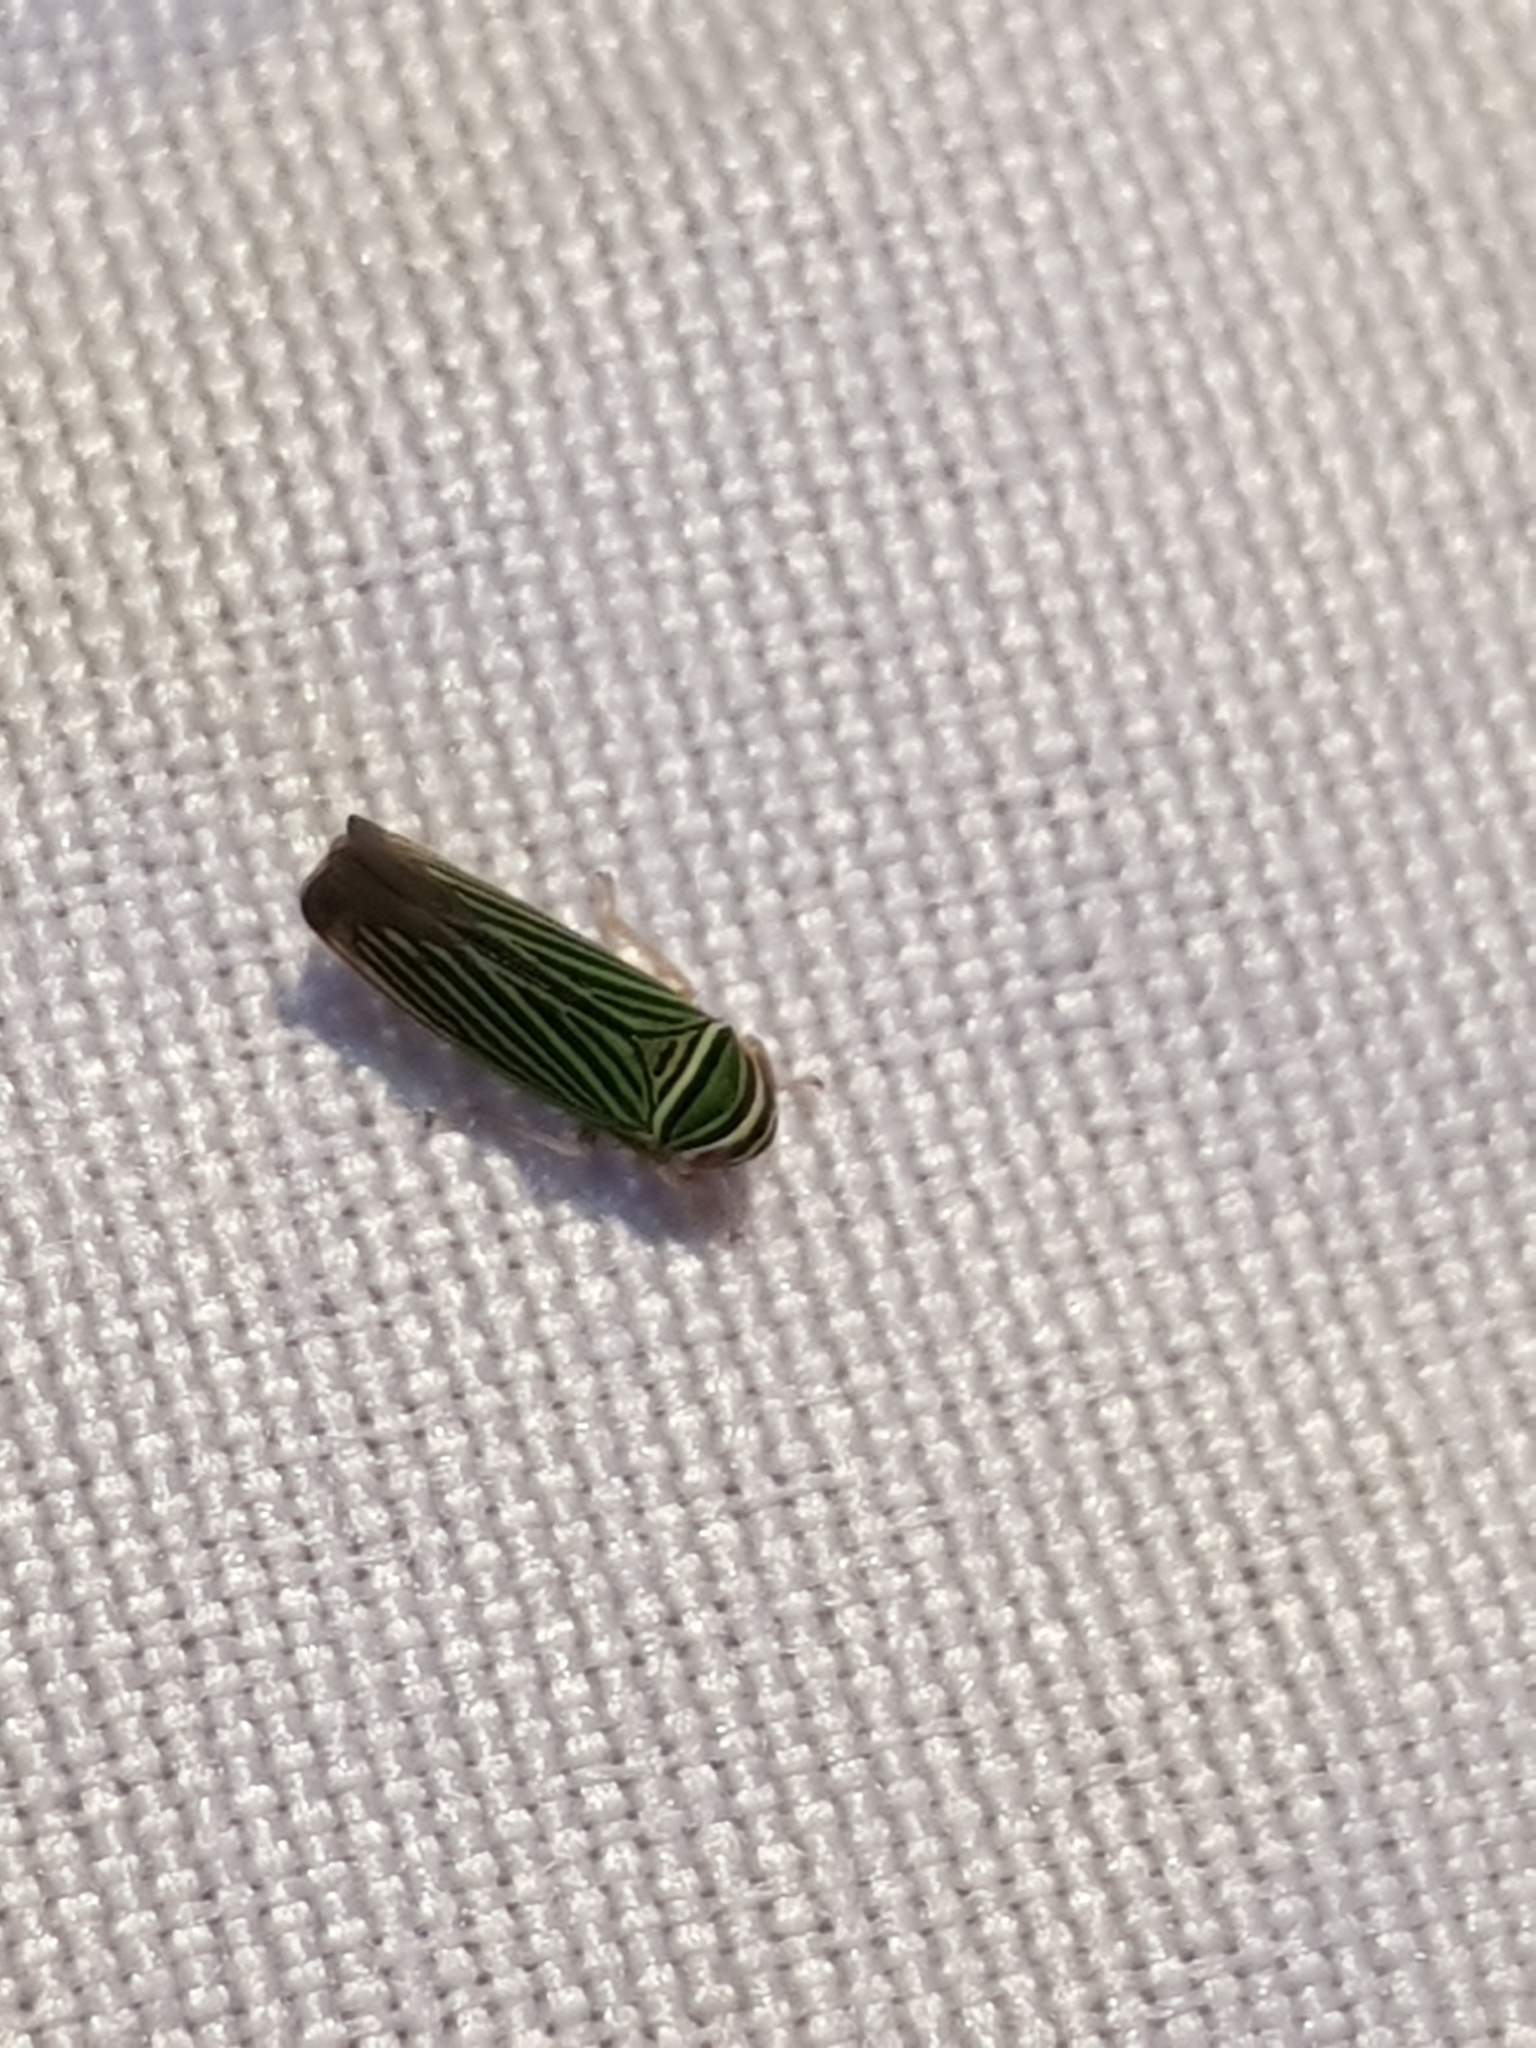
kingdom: Animalia
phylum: Arthropoda
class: Insecta
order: Hemiptera
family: Cicadellidae
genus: Tylozygus
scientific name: Tylozygus bifidus
